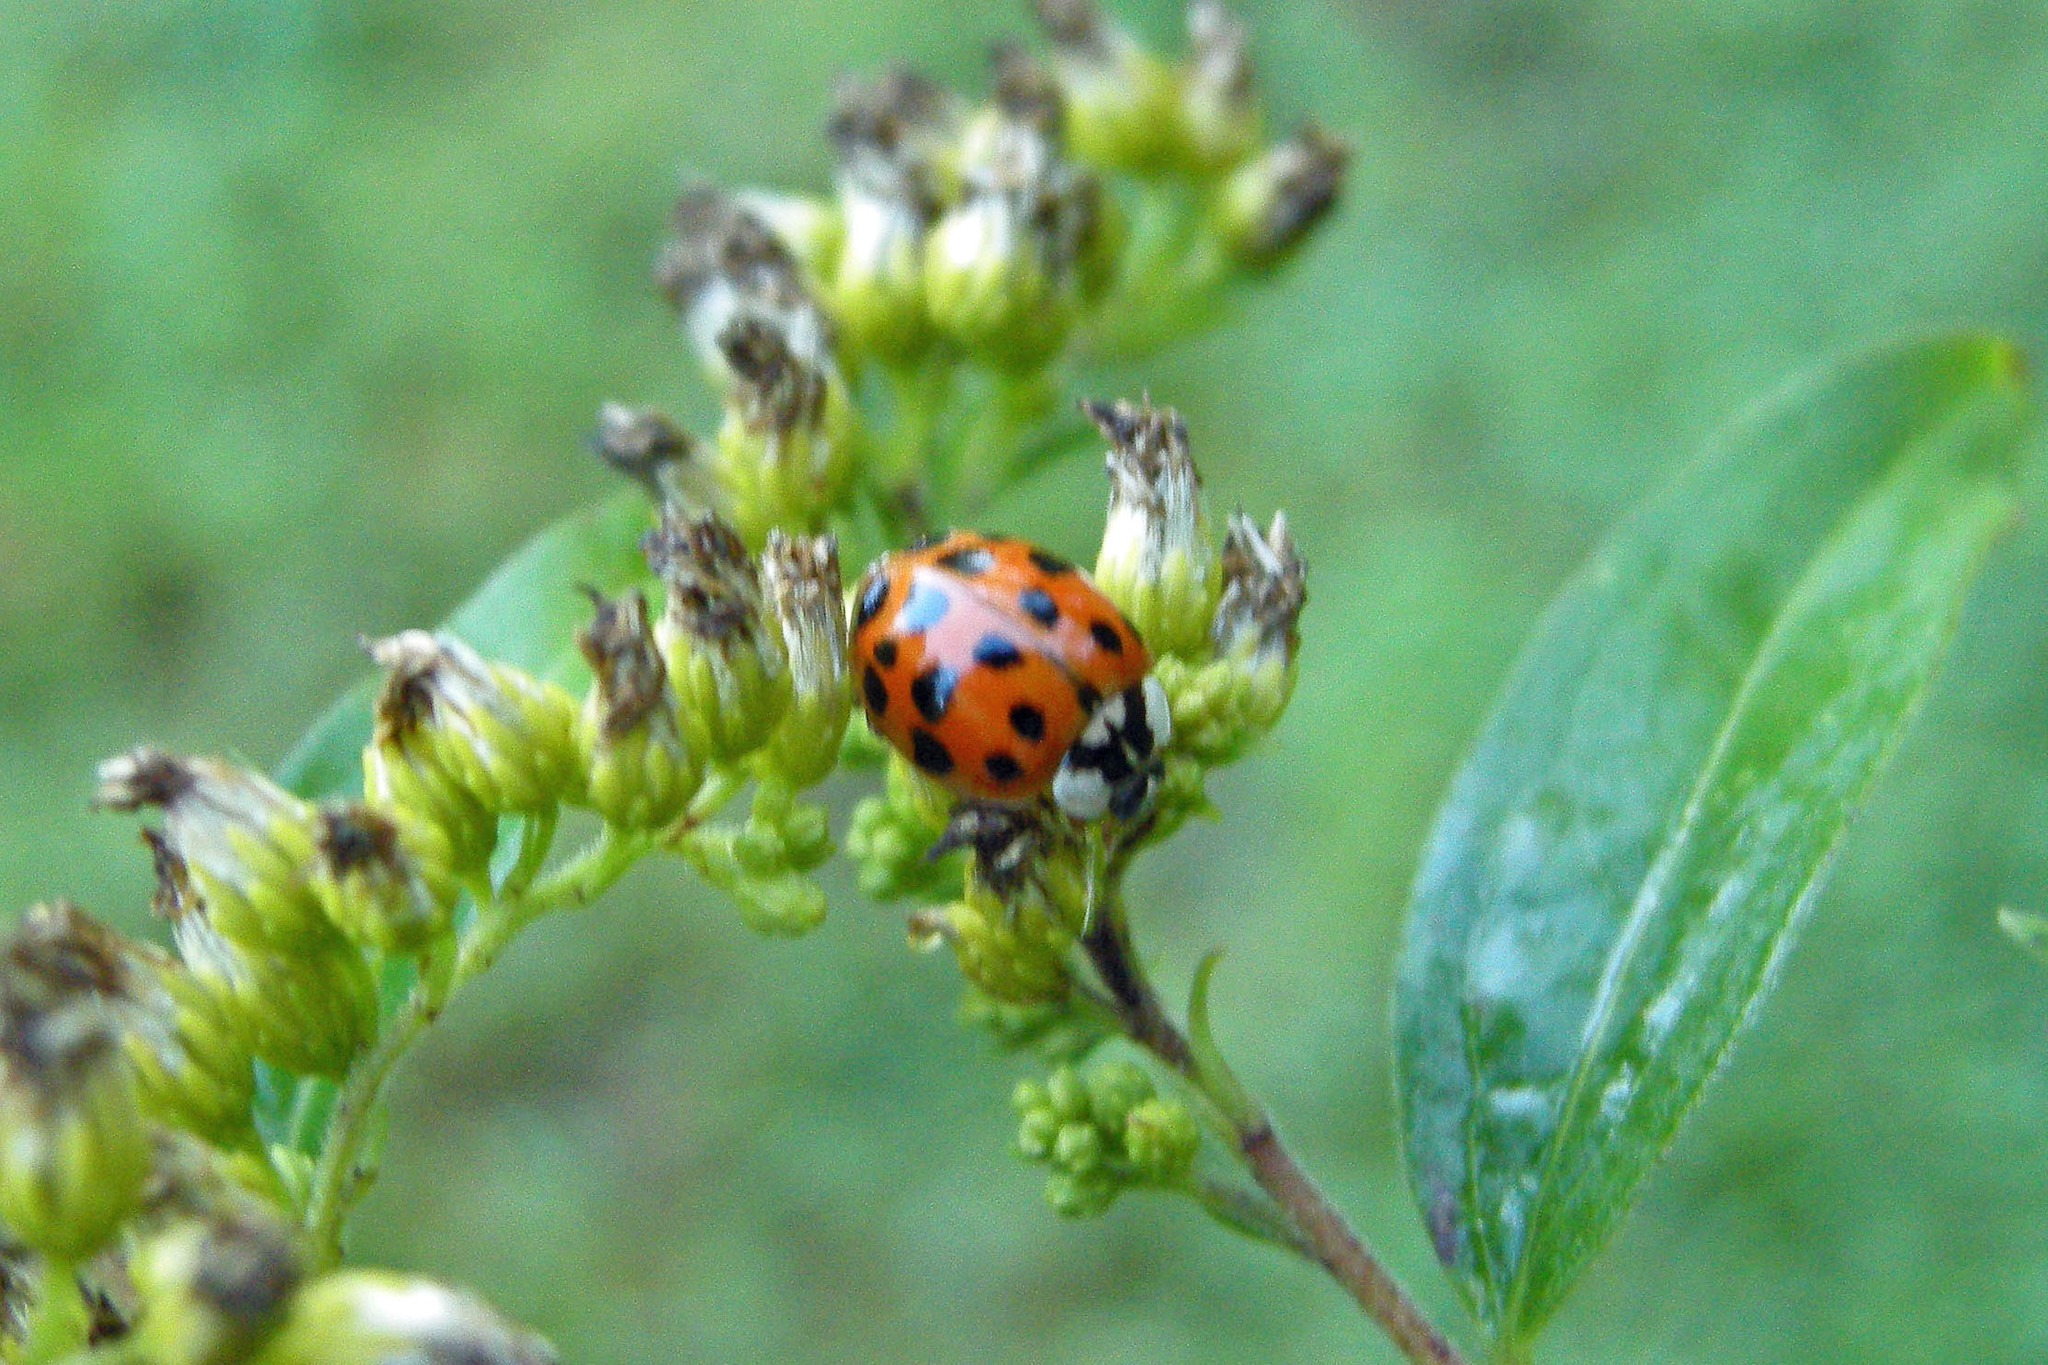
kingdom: Animalia
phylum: Arthropoda
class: Insecta
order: Coleoptera
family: Coccinellidae
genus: Harmonia
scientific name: Harmonia axyridis
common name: Harlequin ladybird
